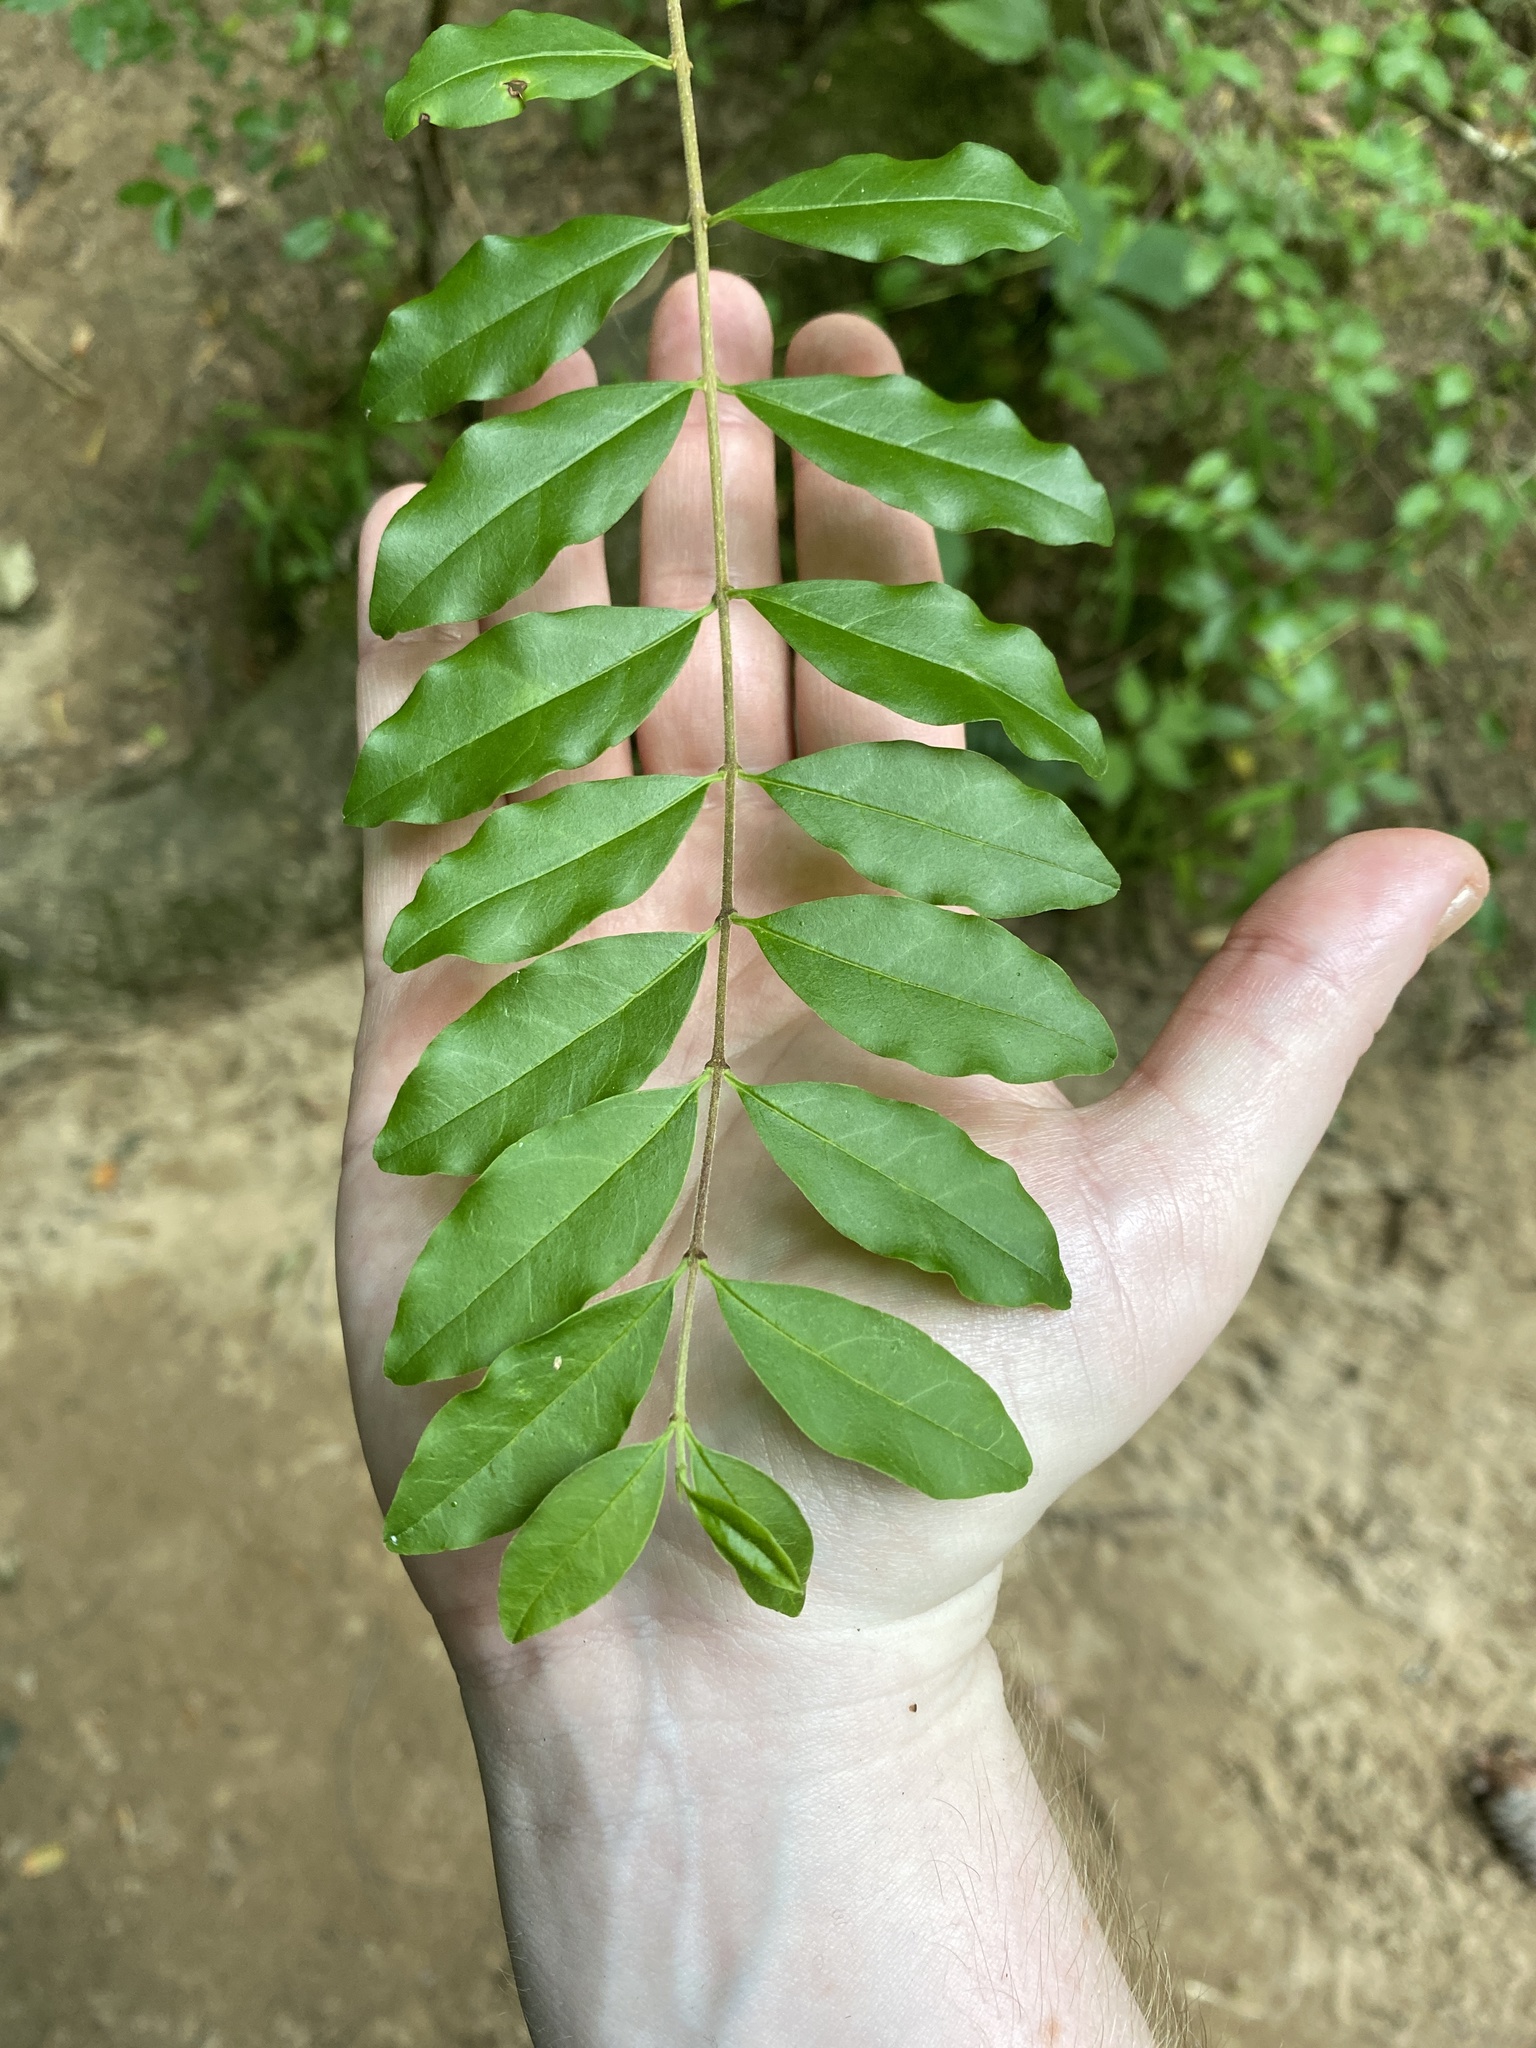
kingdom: Plantae
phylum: Tracheophyta
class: Magnoliopsida
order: Lamiales
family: Oleaceae
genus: Ligustrum
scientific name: Ligustrum sinense
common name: Chinese privet
